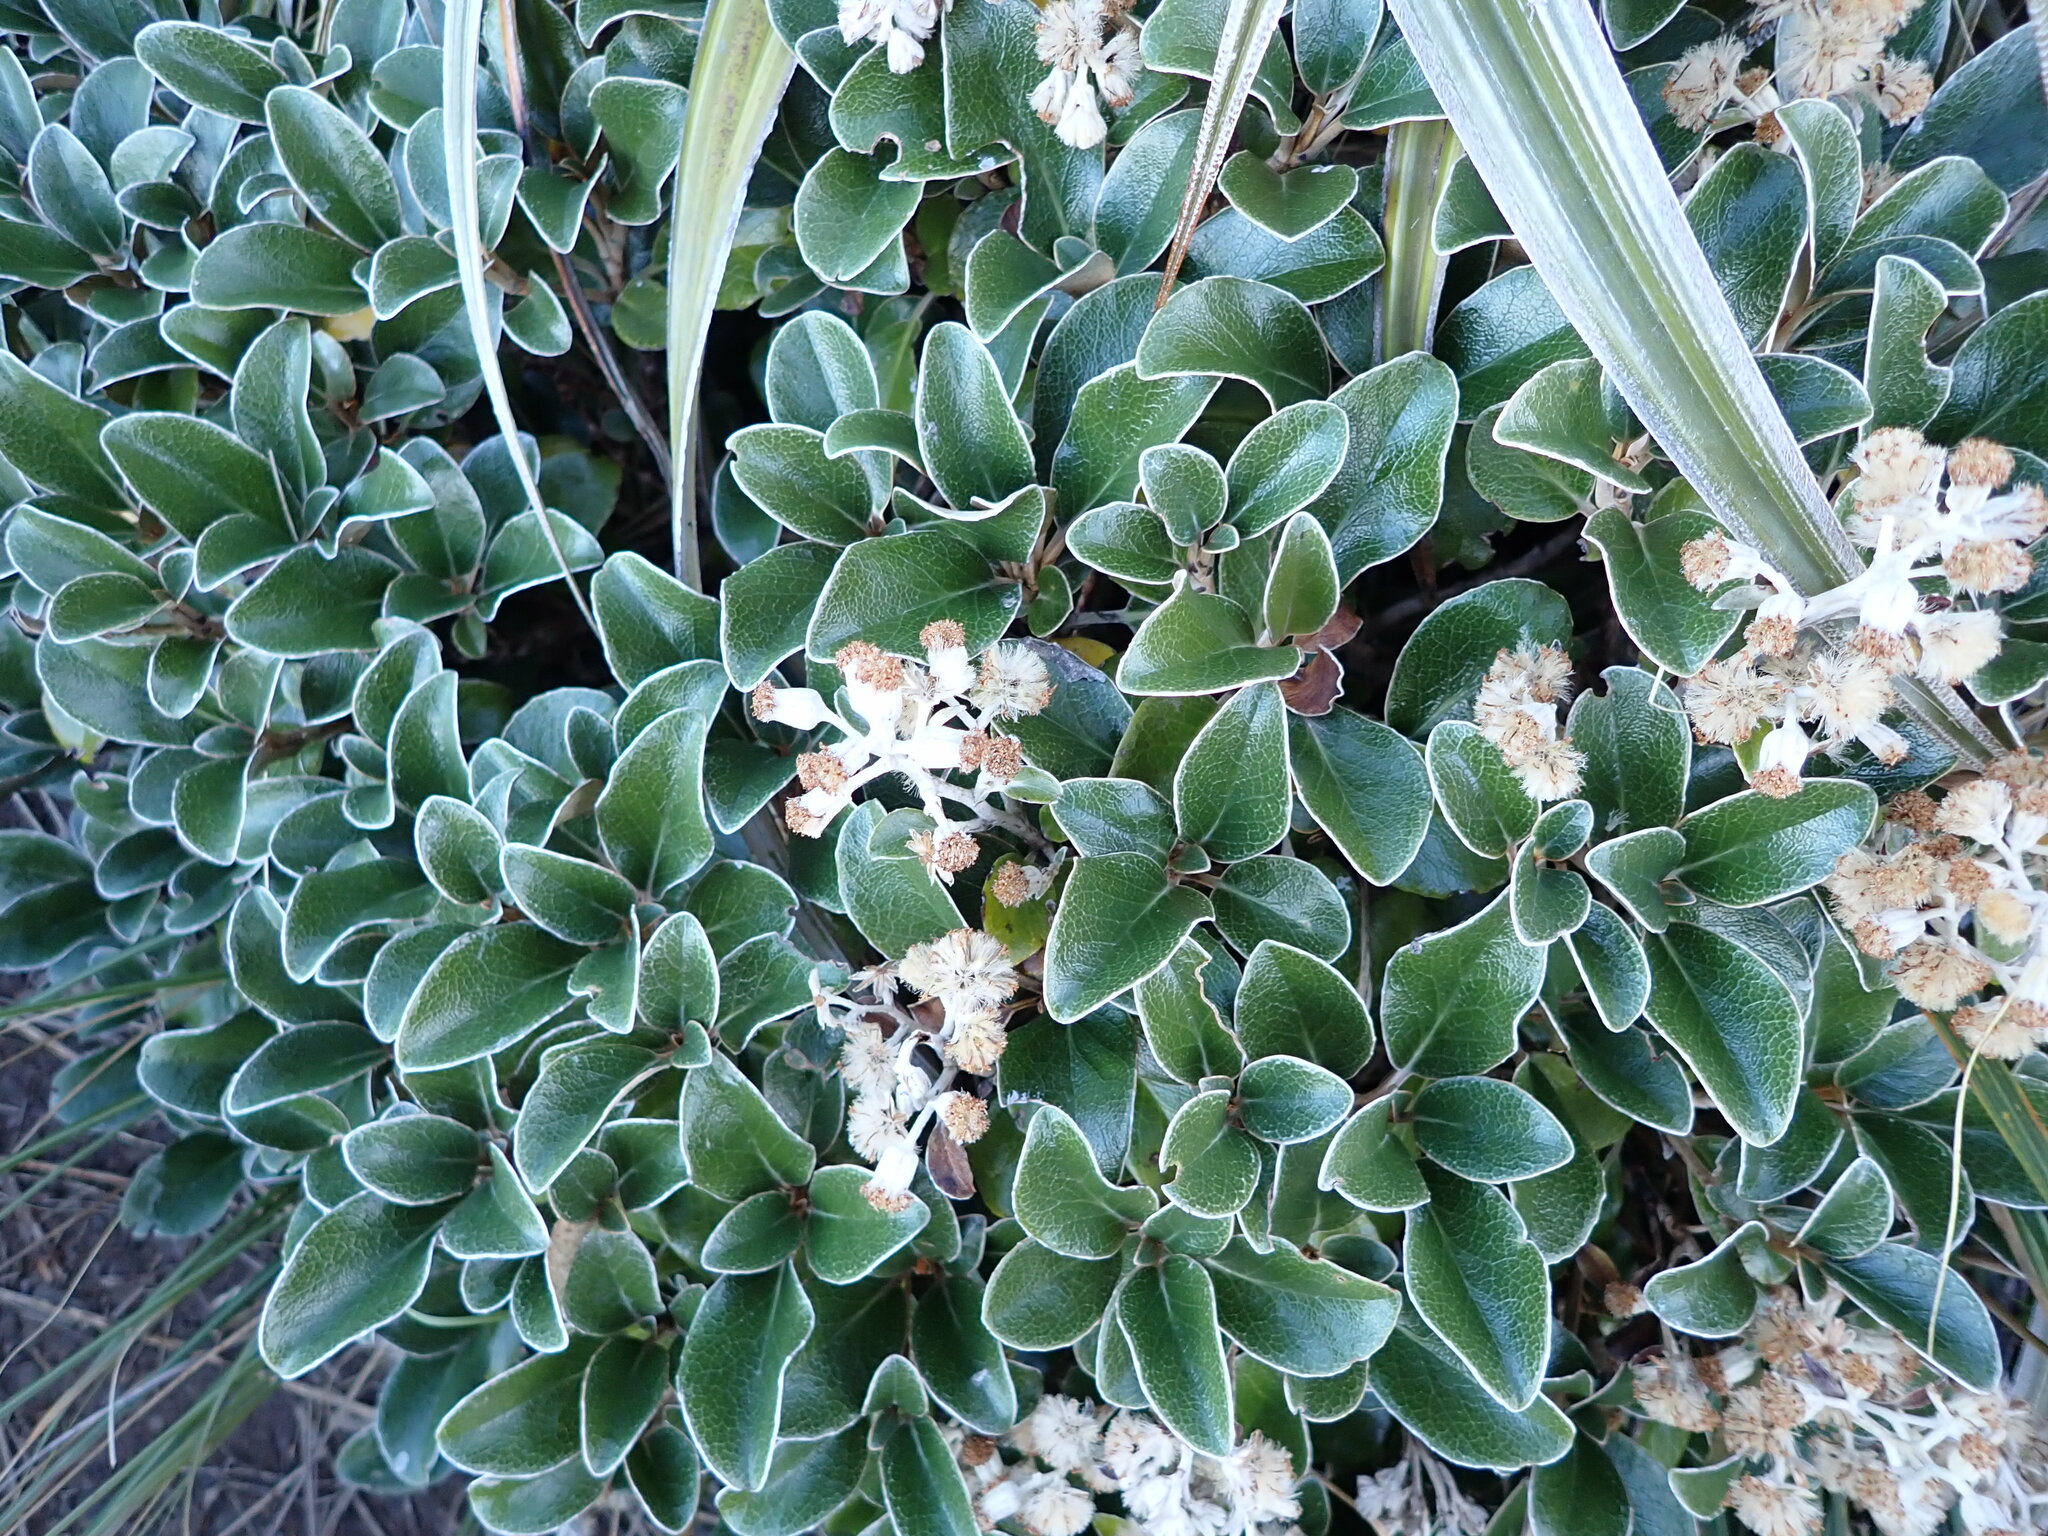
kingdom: Plantae
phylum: Tracheophyta
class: Magnoliopsida
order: Asterales
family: Asteraceae
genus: Brachyglottis
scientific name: Brachyglottis elaeagnifolia
